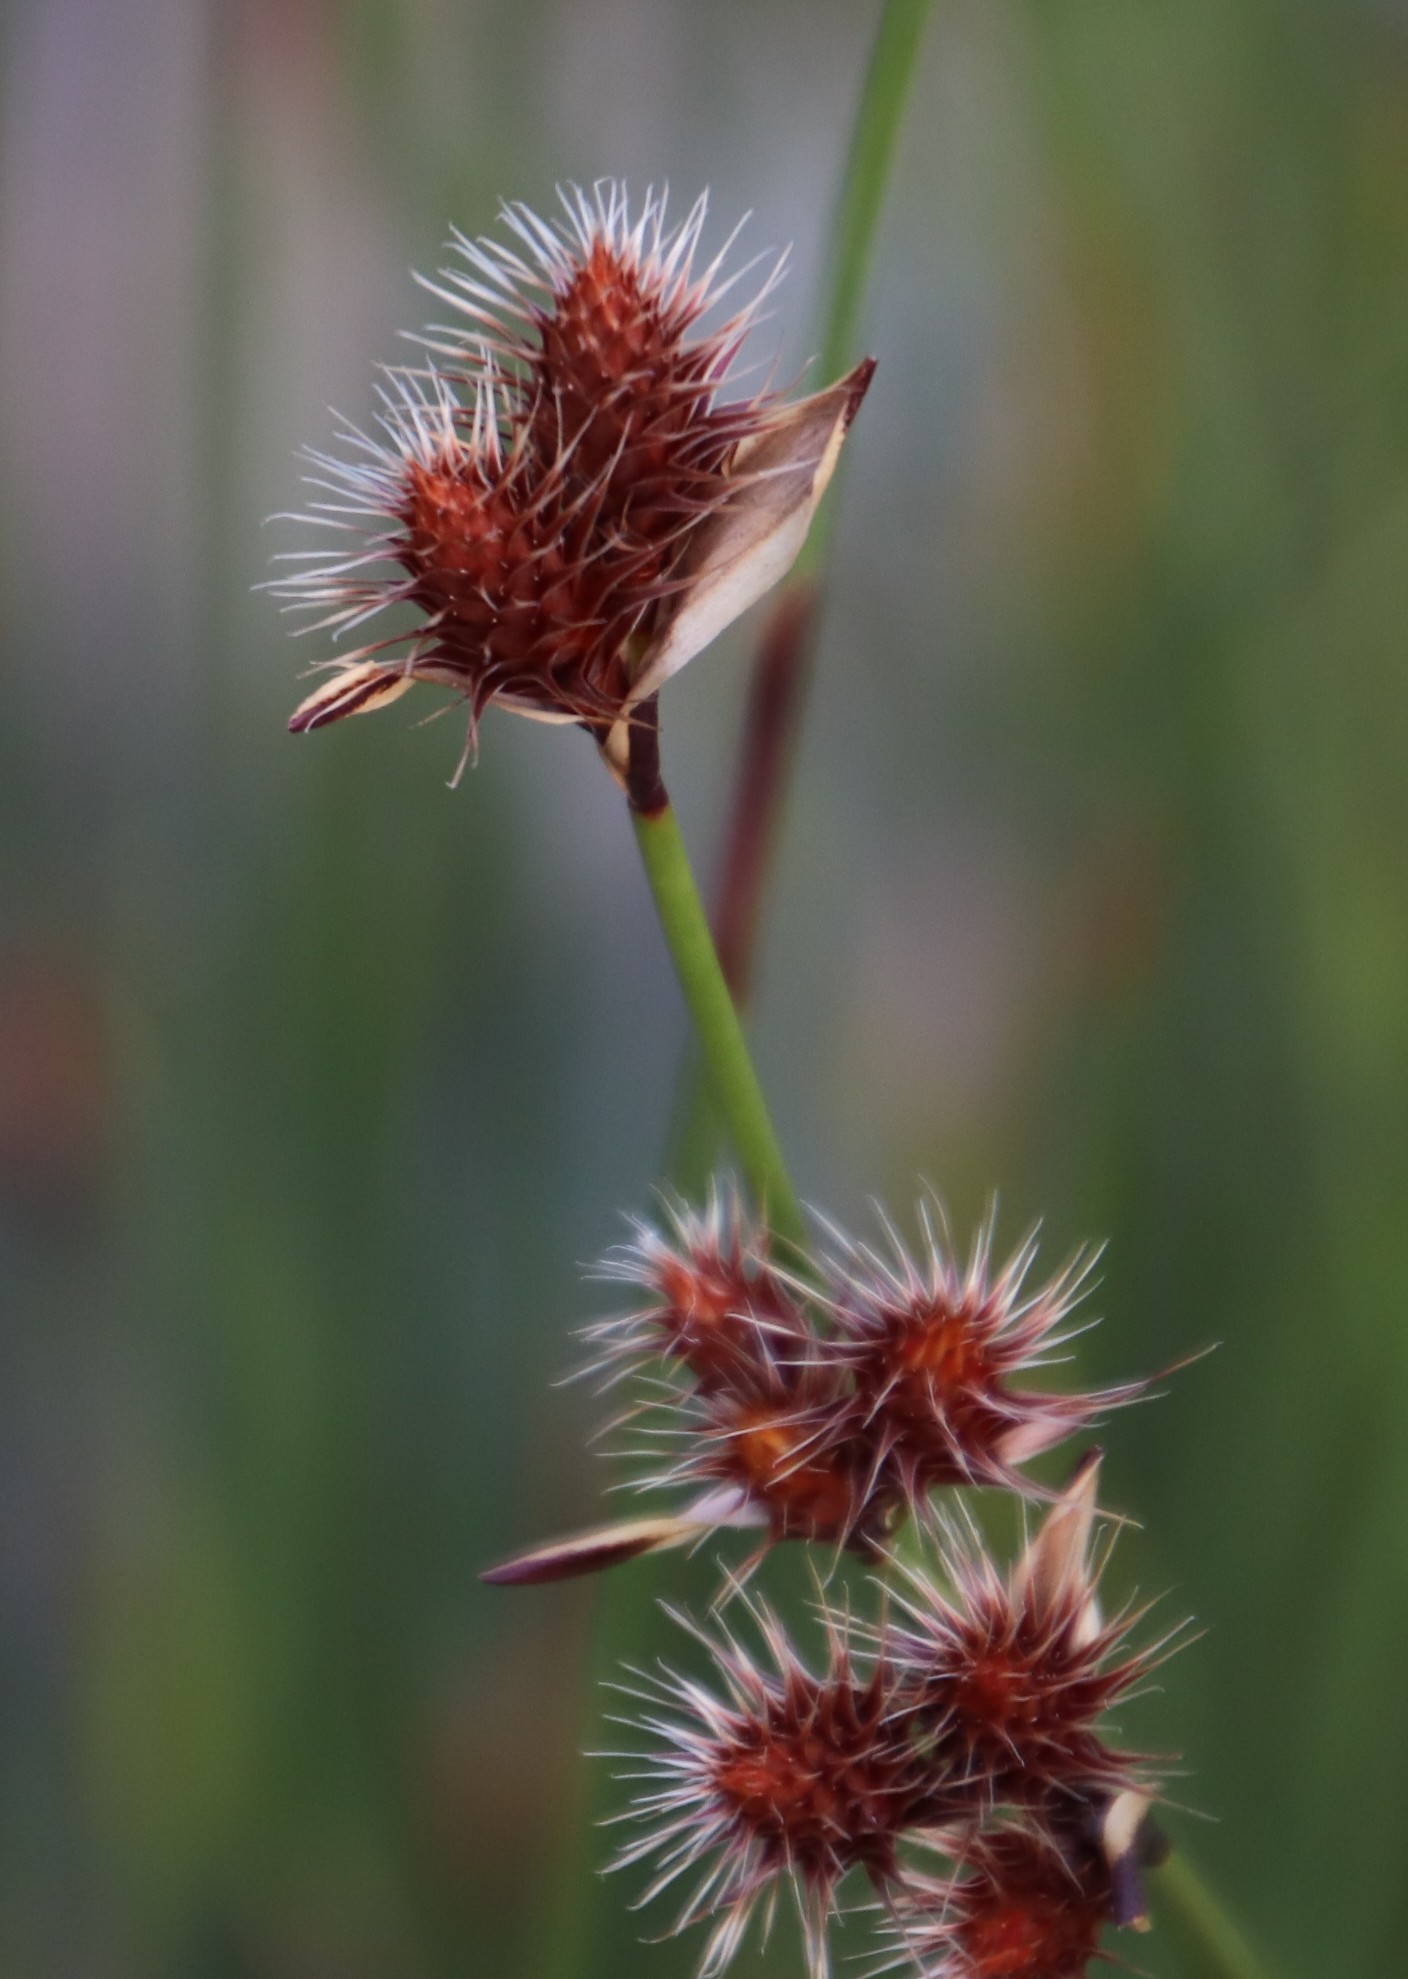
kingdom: Plantae
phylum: Tracheophyta
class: Liliopsida
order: Poales
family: Restionaceae
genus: Hypodiscus
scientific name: Hypodiscus aristatus
